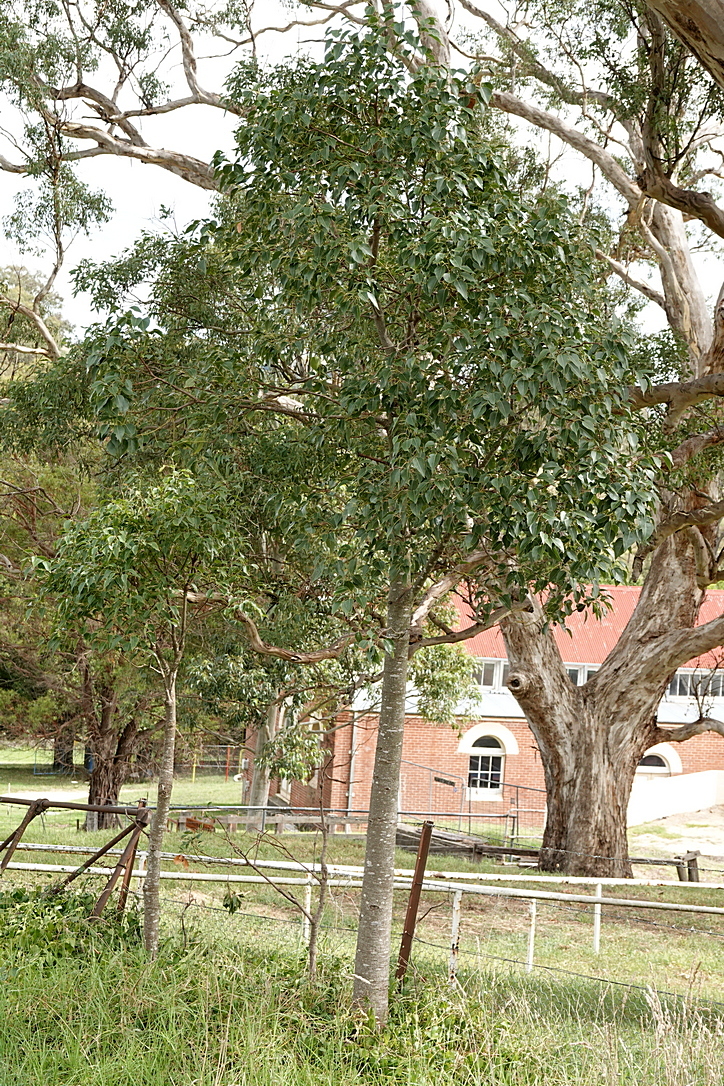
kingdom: Plantae
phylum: Tracheophyta
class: Magnoliopsida
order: Malvales
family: Malvaceae
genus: Brachychiton
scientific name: Brachychiton populneus
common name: Kurrajong
